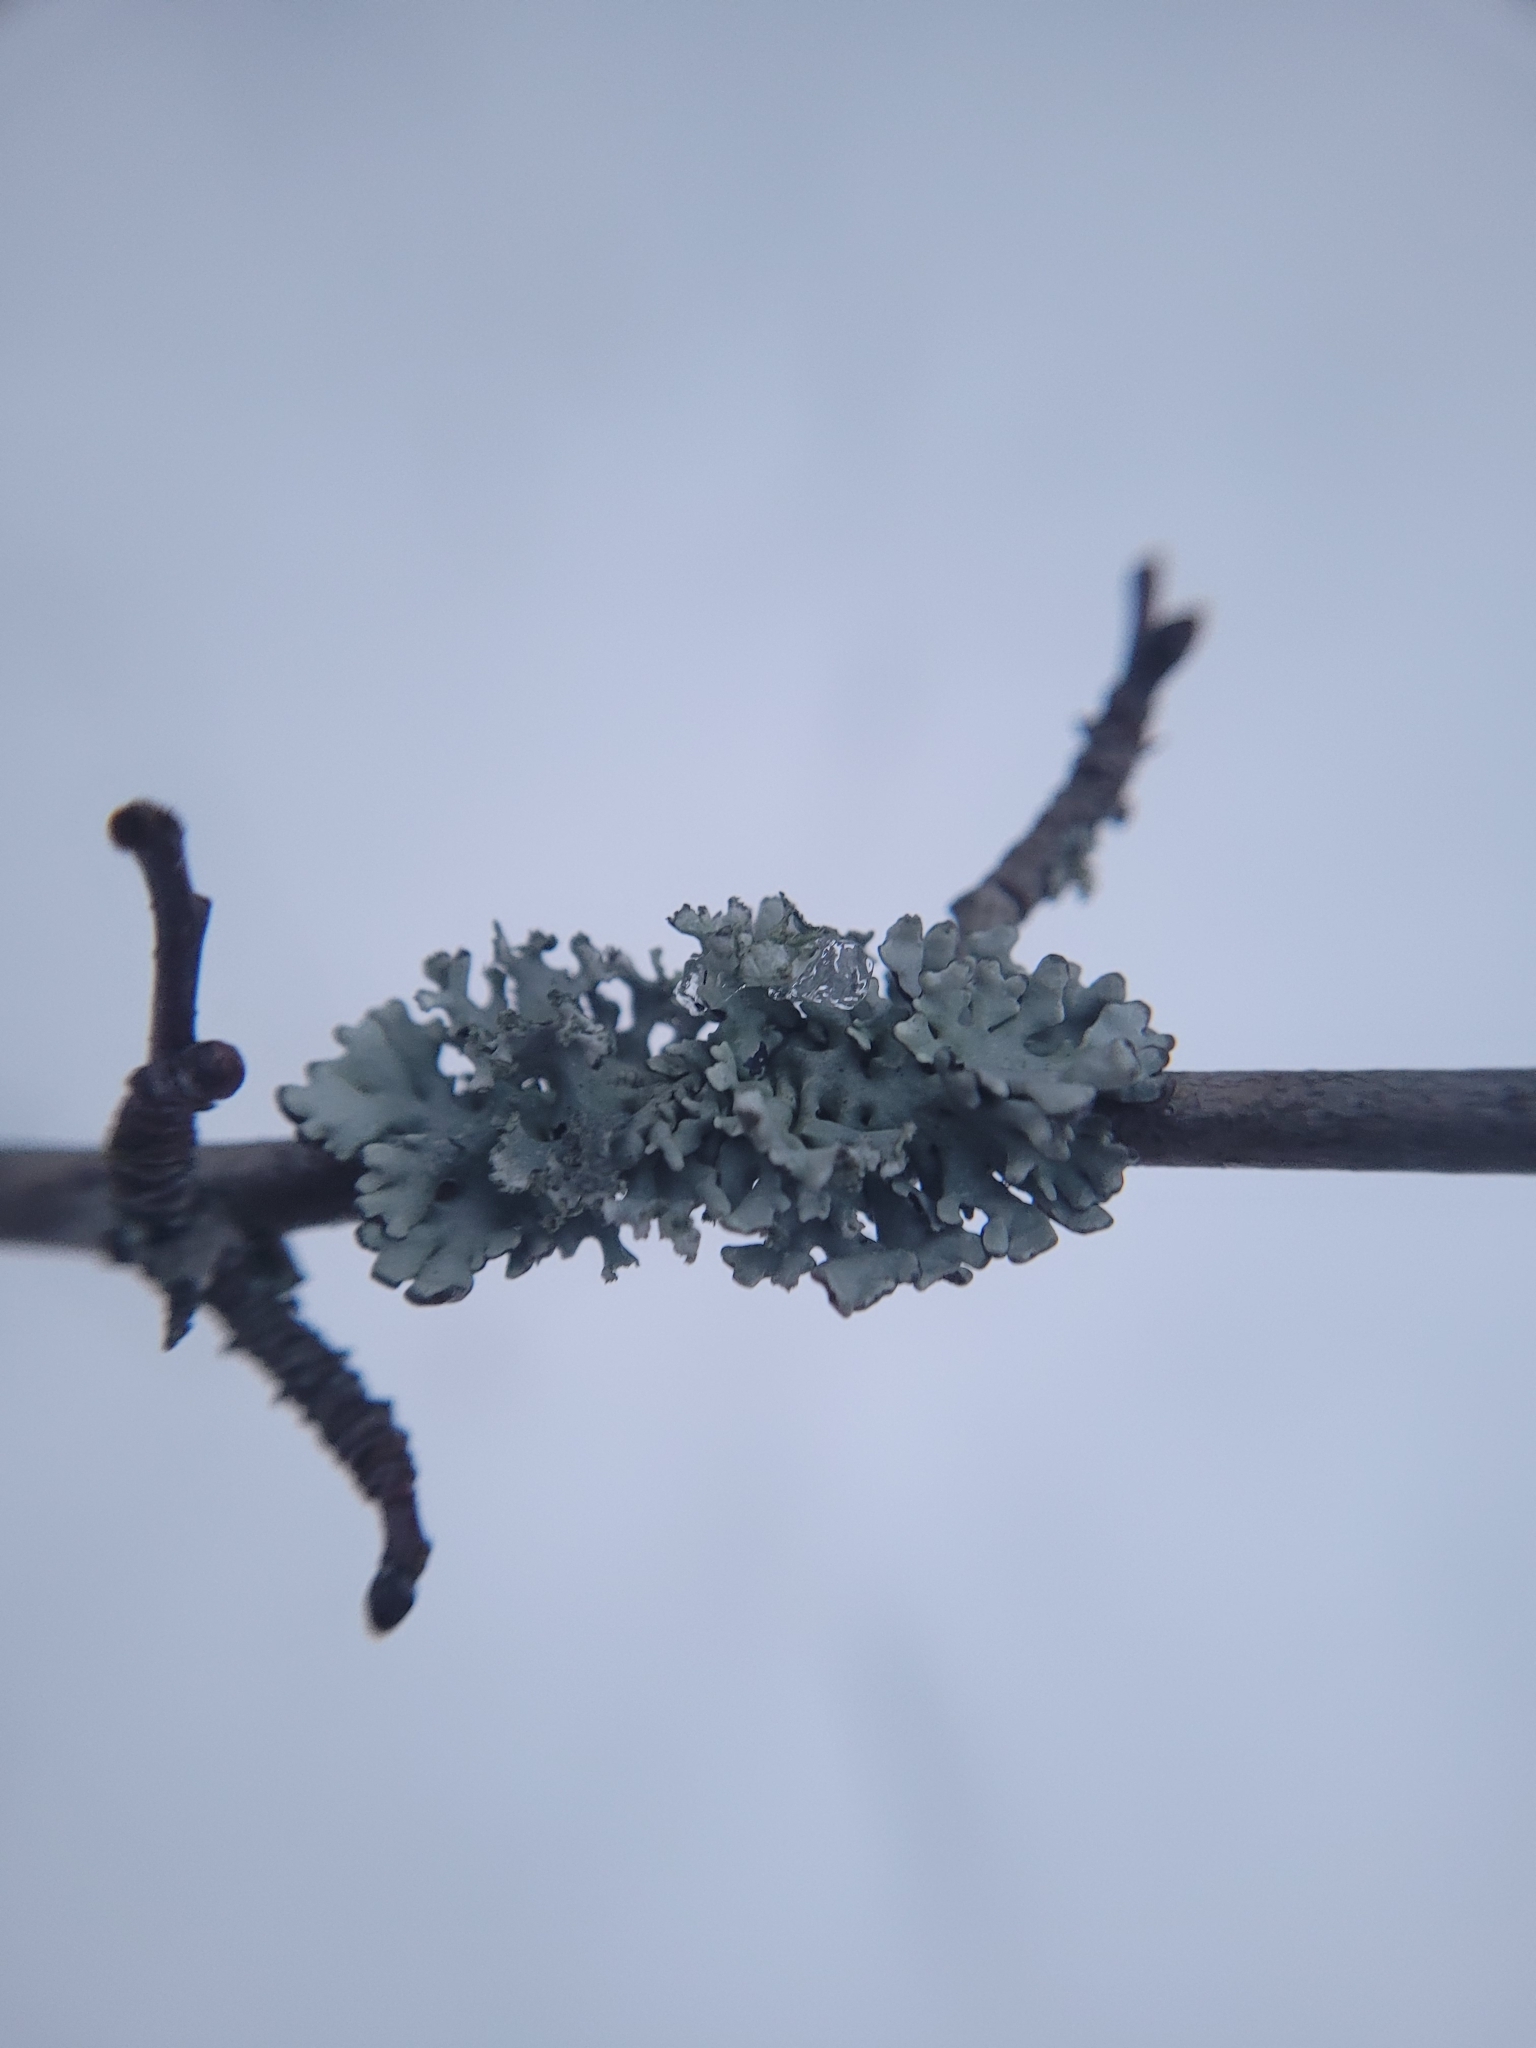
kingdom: Fungi
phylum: Ascomycota
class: Lecanoromycetes
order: Lecanorales
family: Parmeliaceae
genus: Hypogymnia
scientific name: Hypogymnia physodes
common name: Dark crottle
